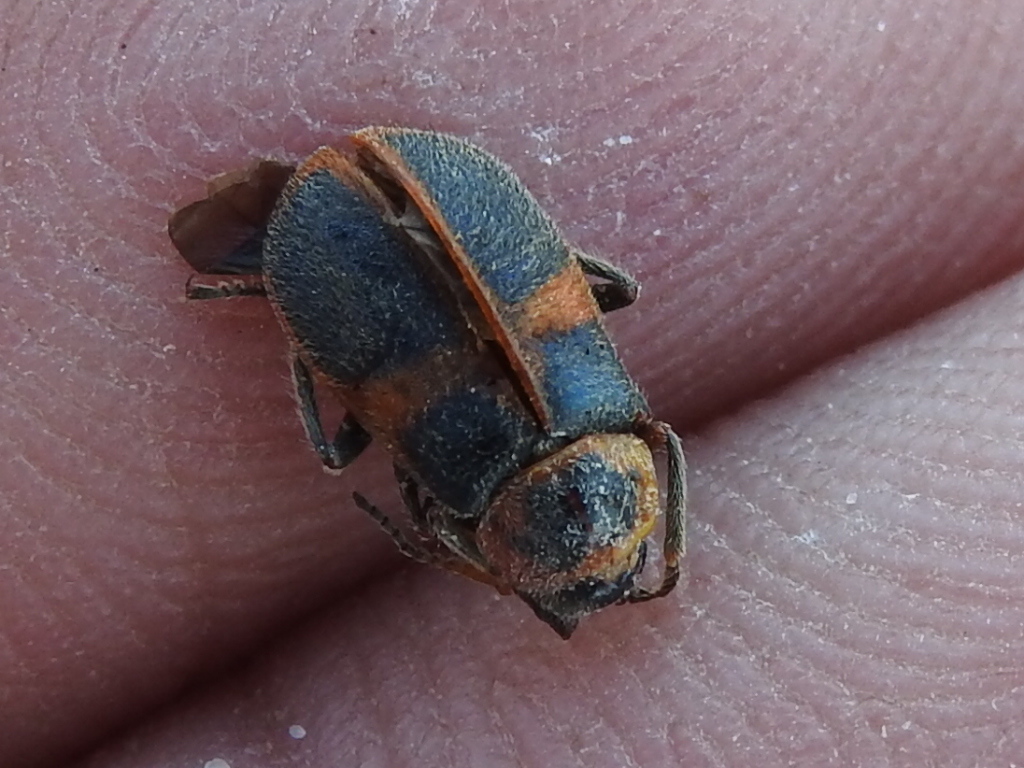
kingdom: Animalia
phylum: Arthropoda
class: Insecta
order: Coleoptera
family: Melyridae
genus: Collops
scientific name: Collops
